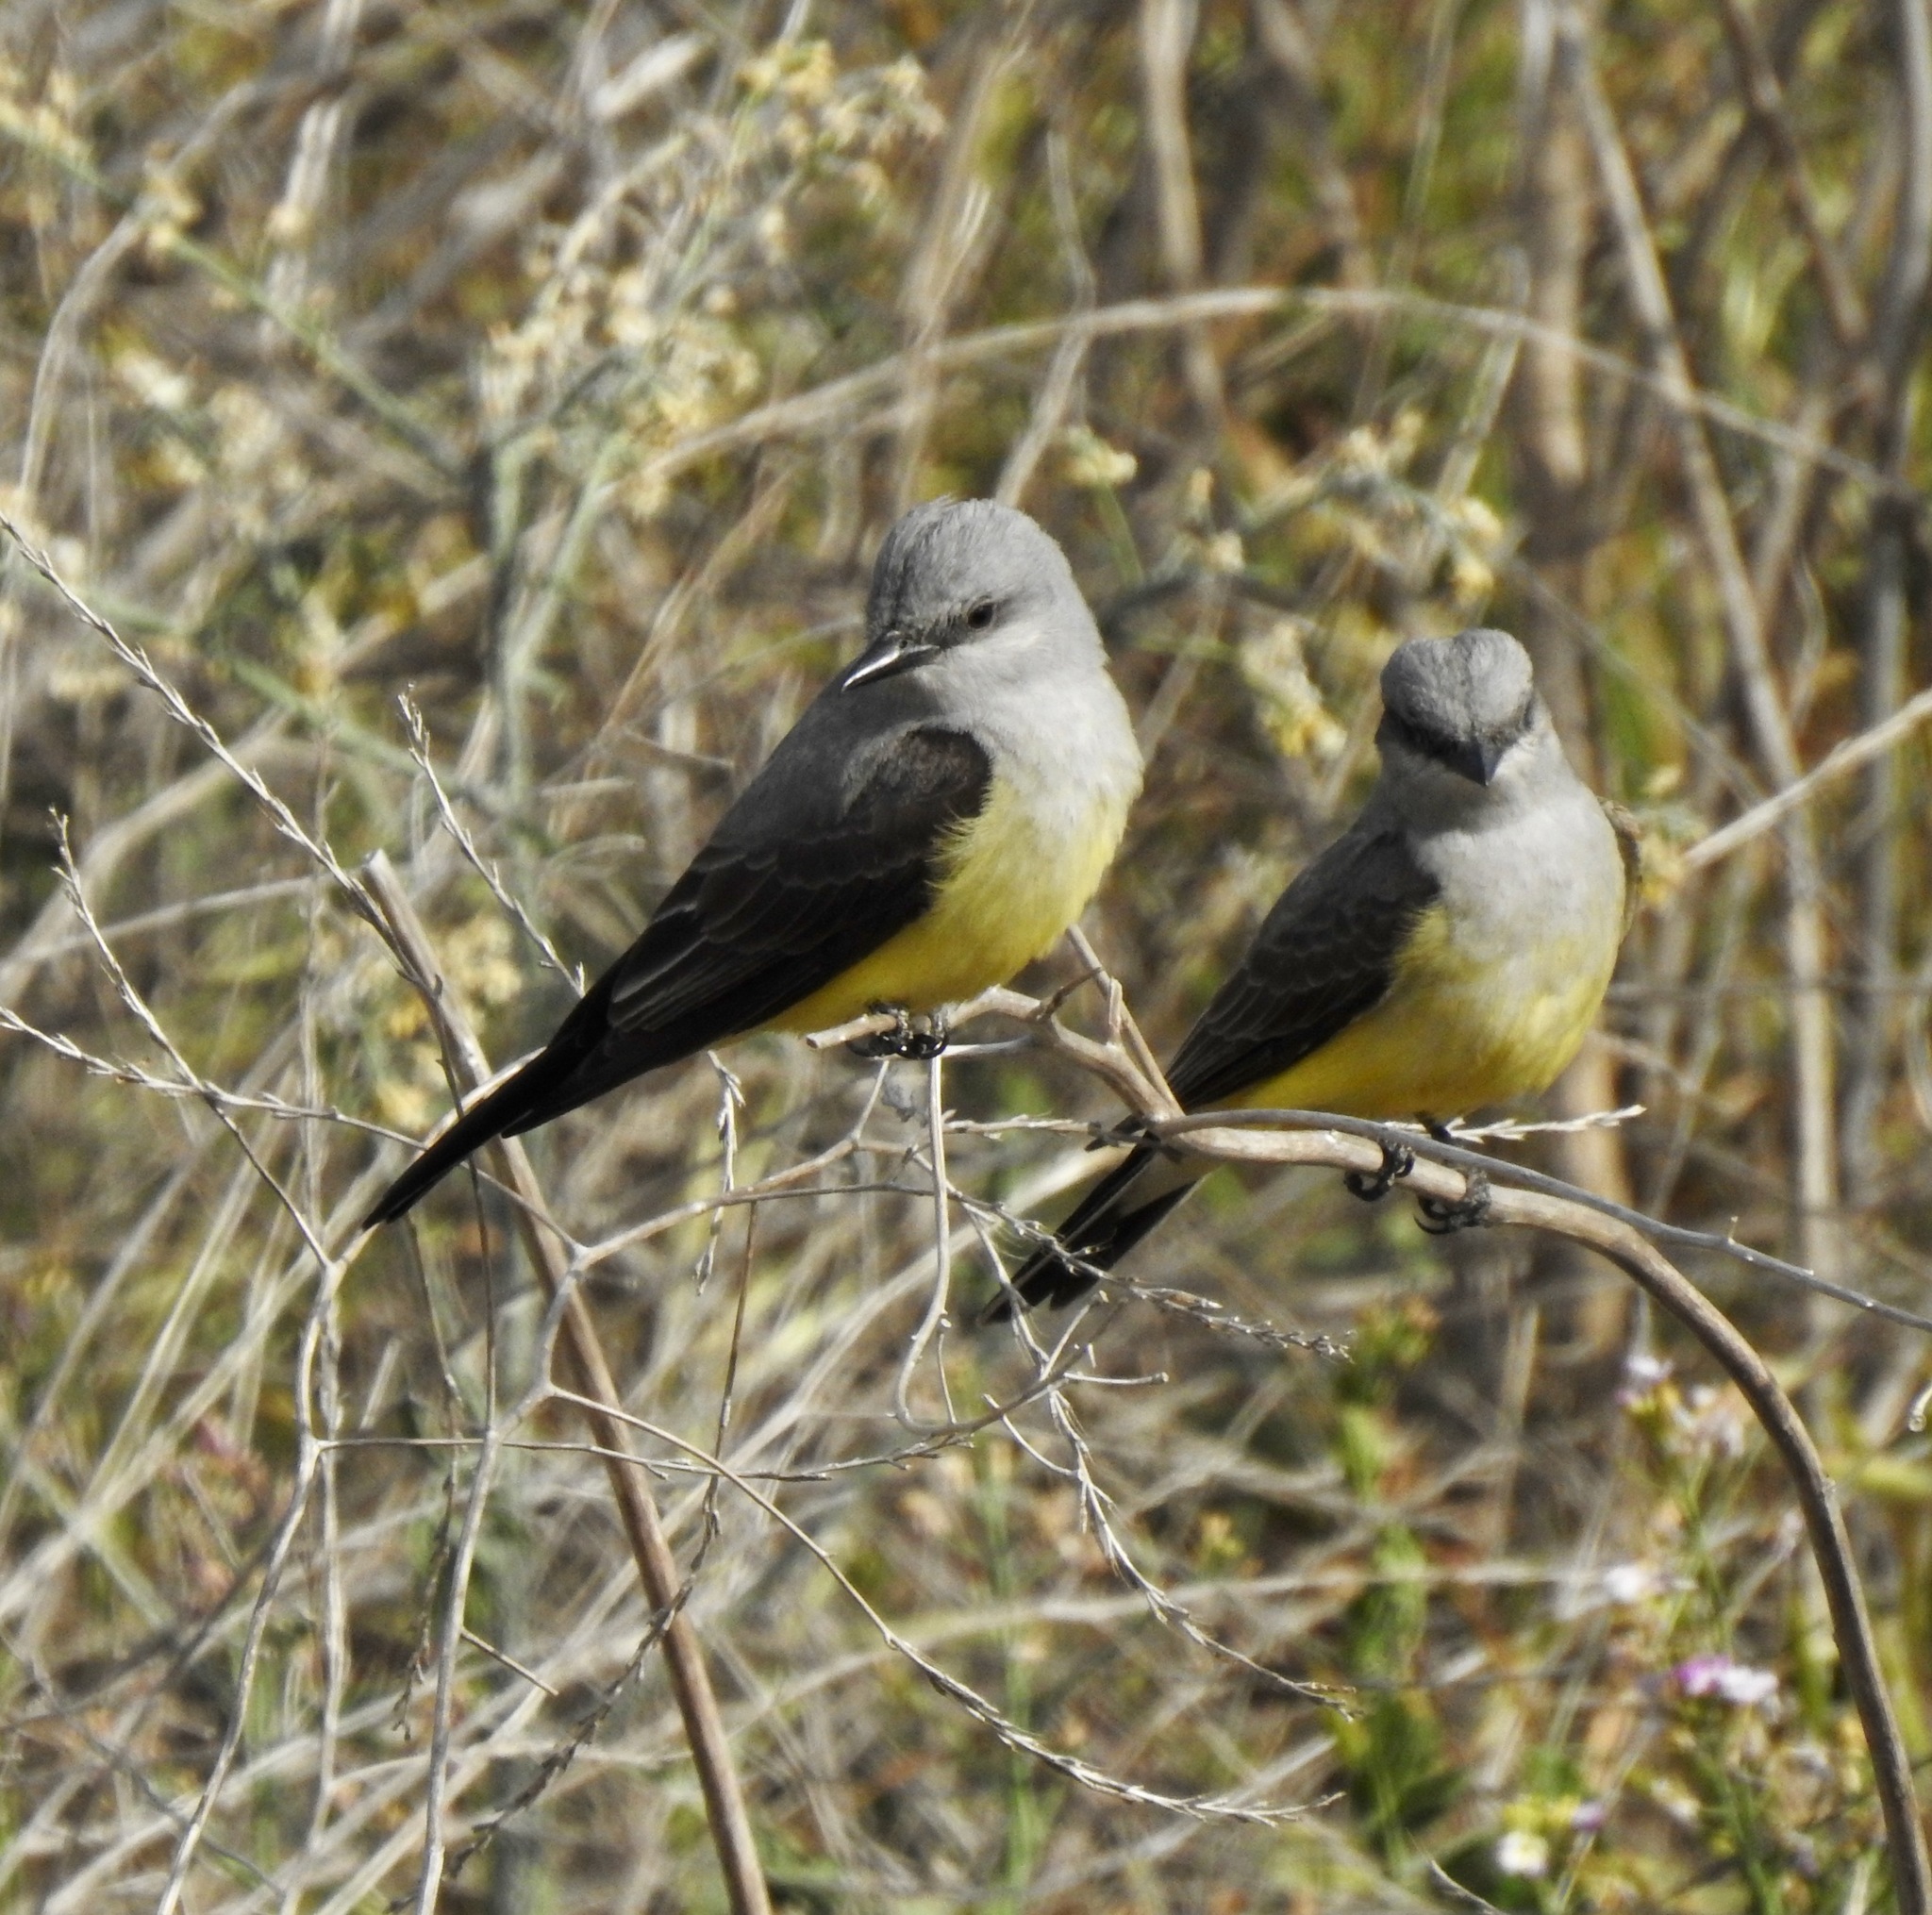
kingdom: Animalia
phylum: Chordata
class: Aves
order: Passeriformes
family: Tyrannidae
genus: Tyrannus
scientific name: Tyrannus verticalis
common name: Western kingbird
